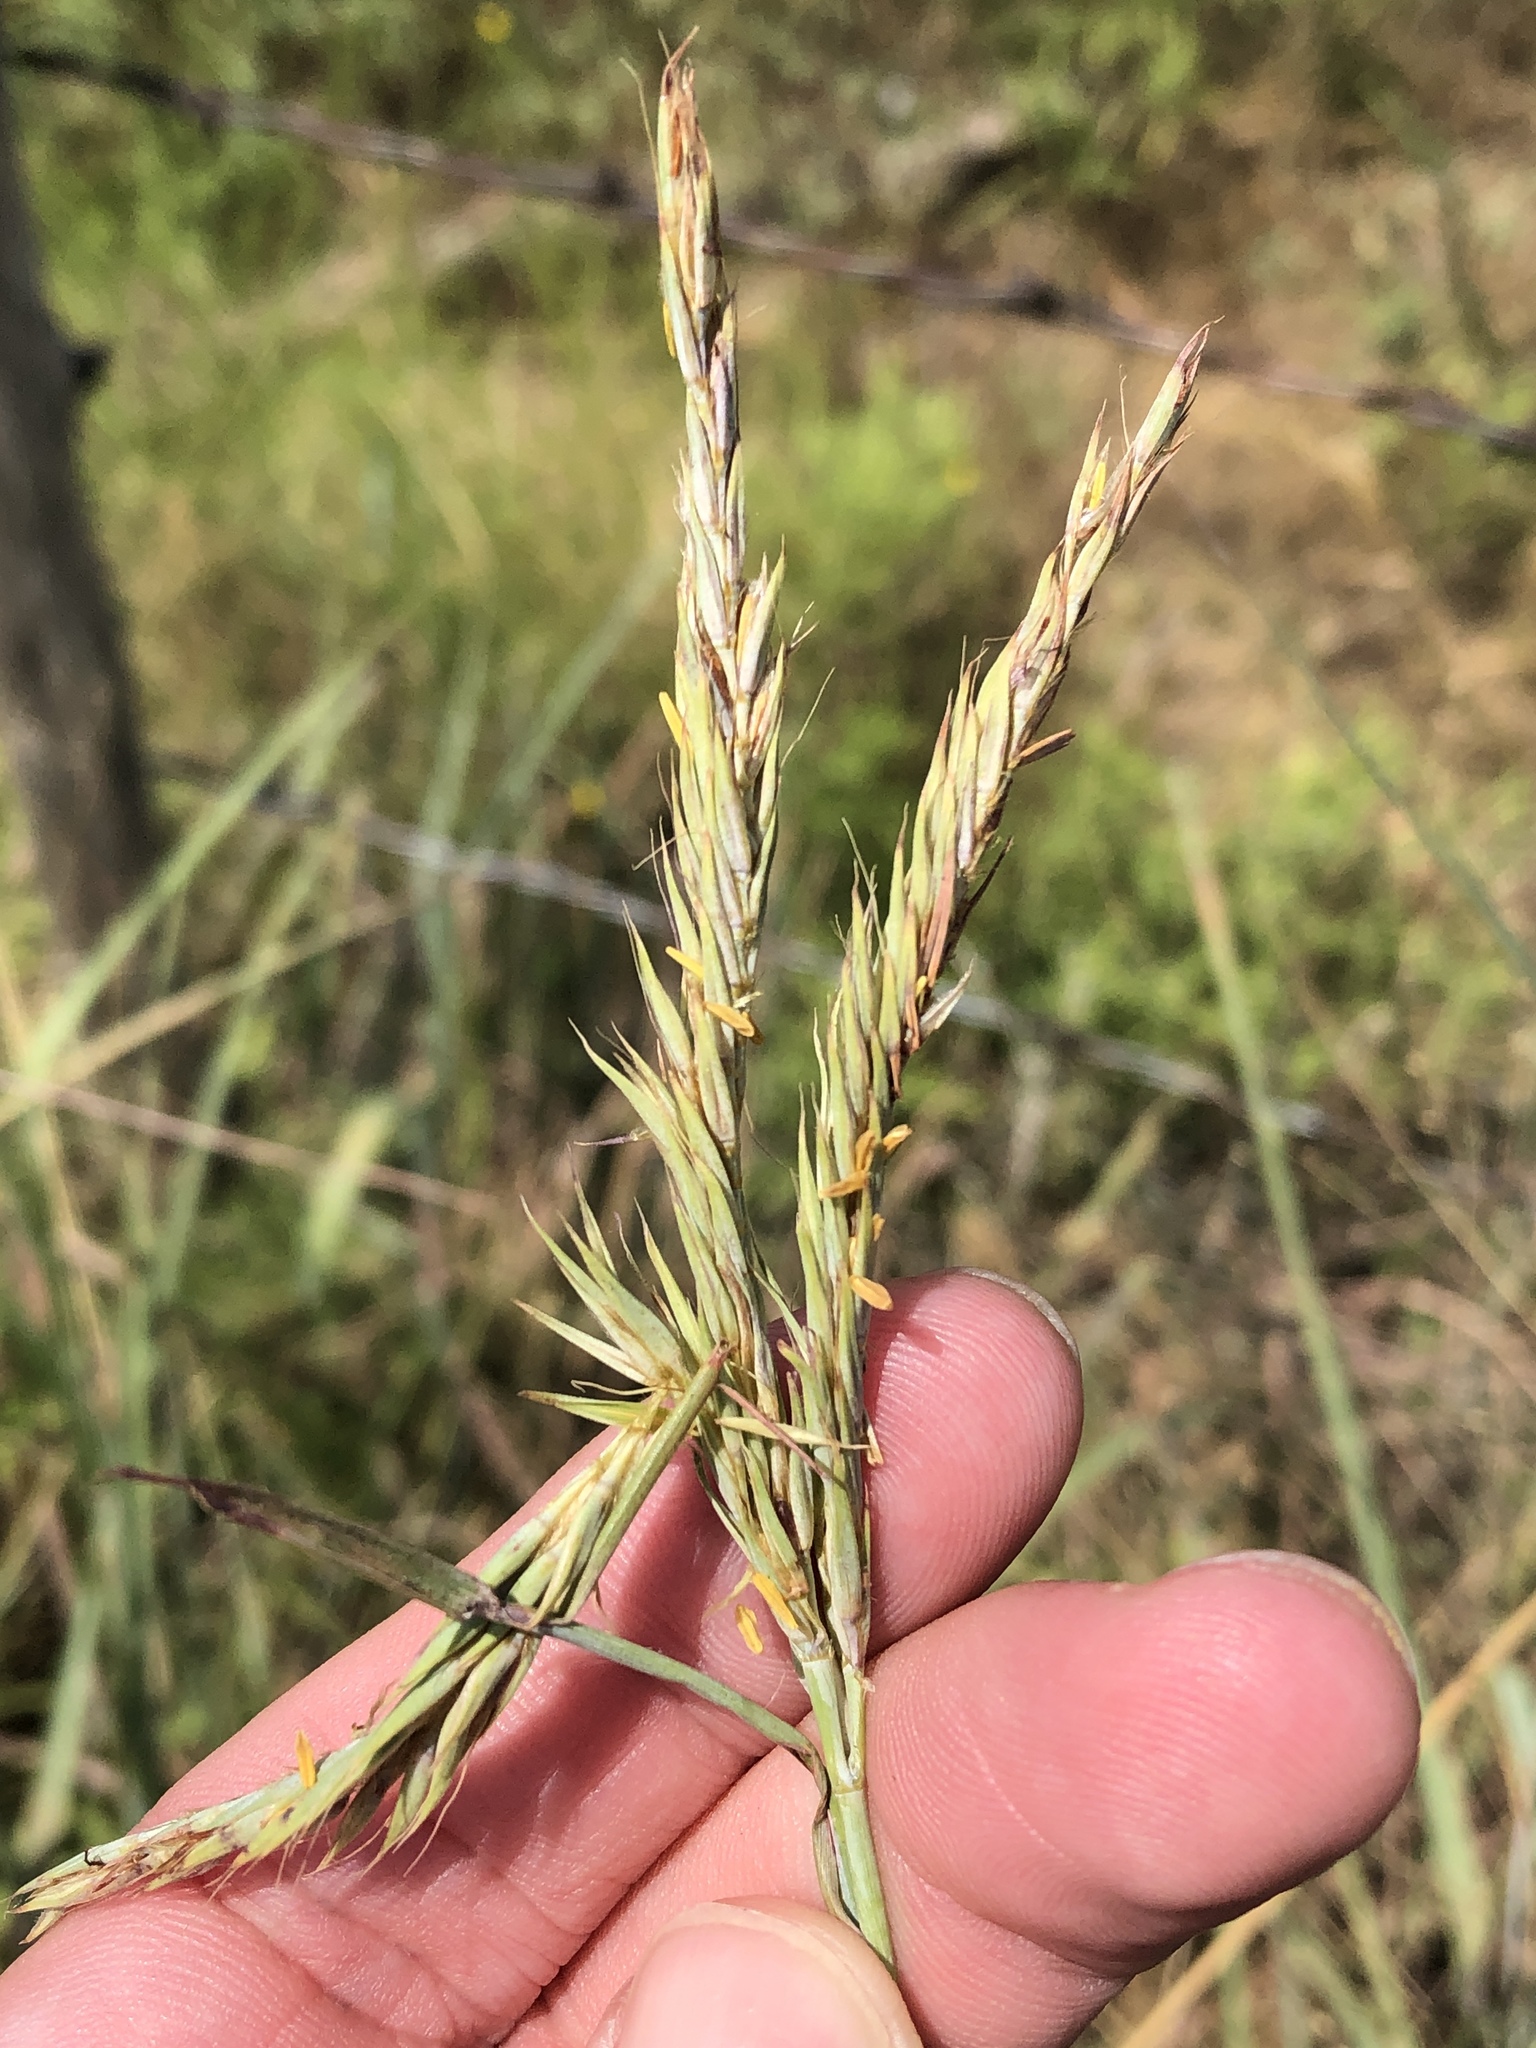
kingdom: Plantae
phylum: Tracheophyta
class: Liliopsida
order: Poales
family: Poaceae
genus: Andropogon
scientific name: Andropogon gerardi
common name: Big bluestem
